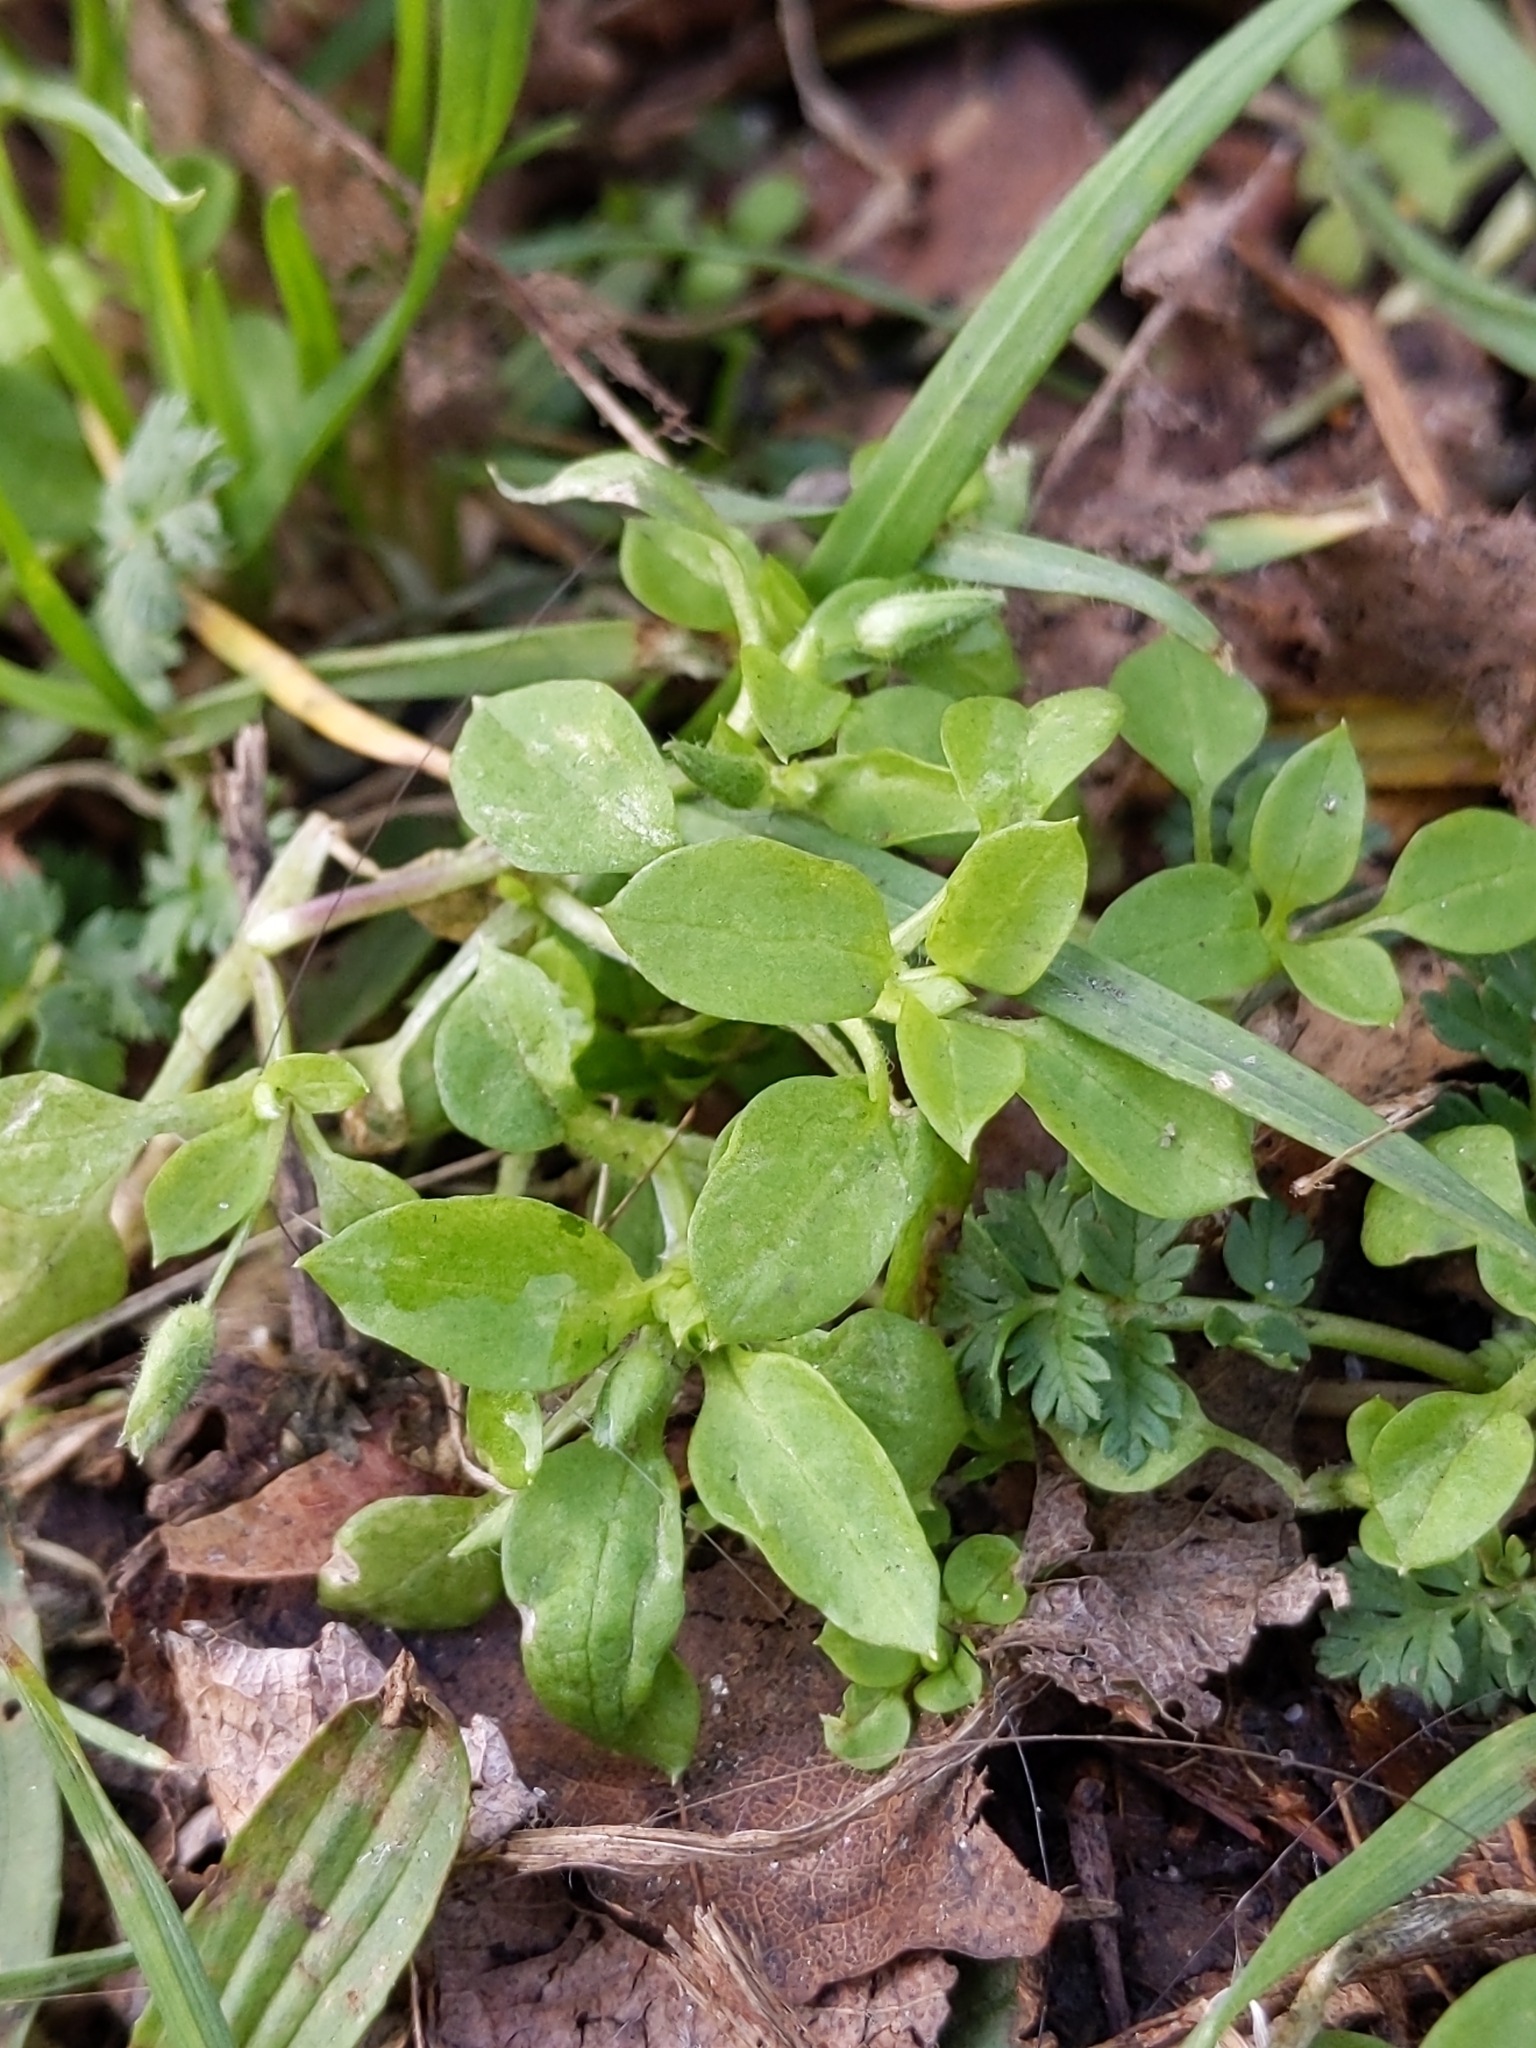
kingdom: Plantae
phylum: Tracheophyta
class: Magnoliopsida
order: Caryophyllales
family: Caryophyllaceae
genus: Stellaria
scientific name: Stellaria media
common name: Common chickweed
